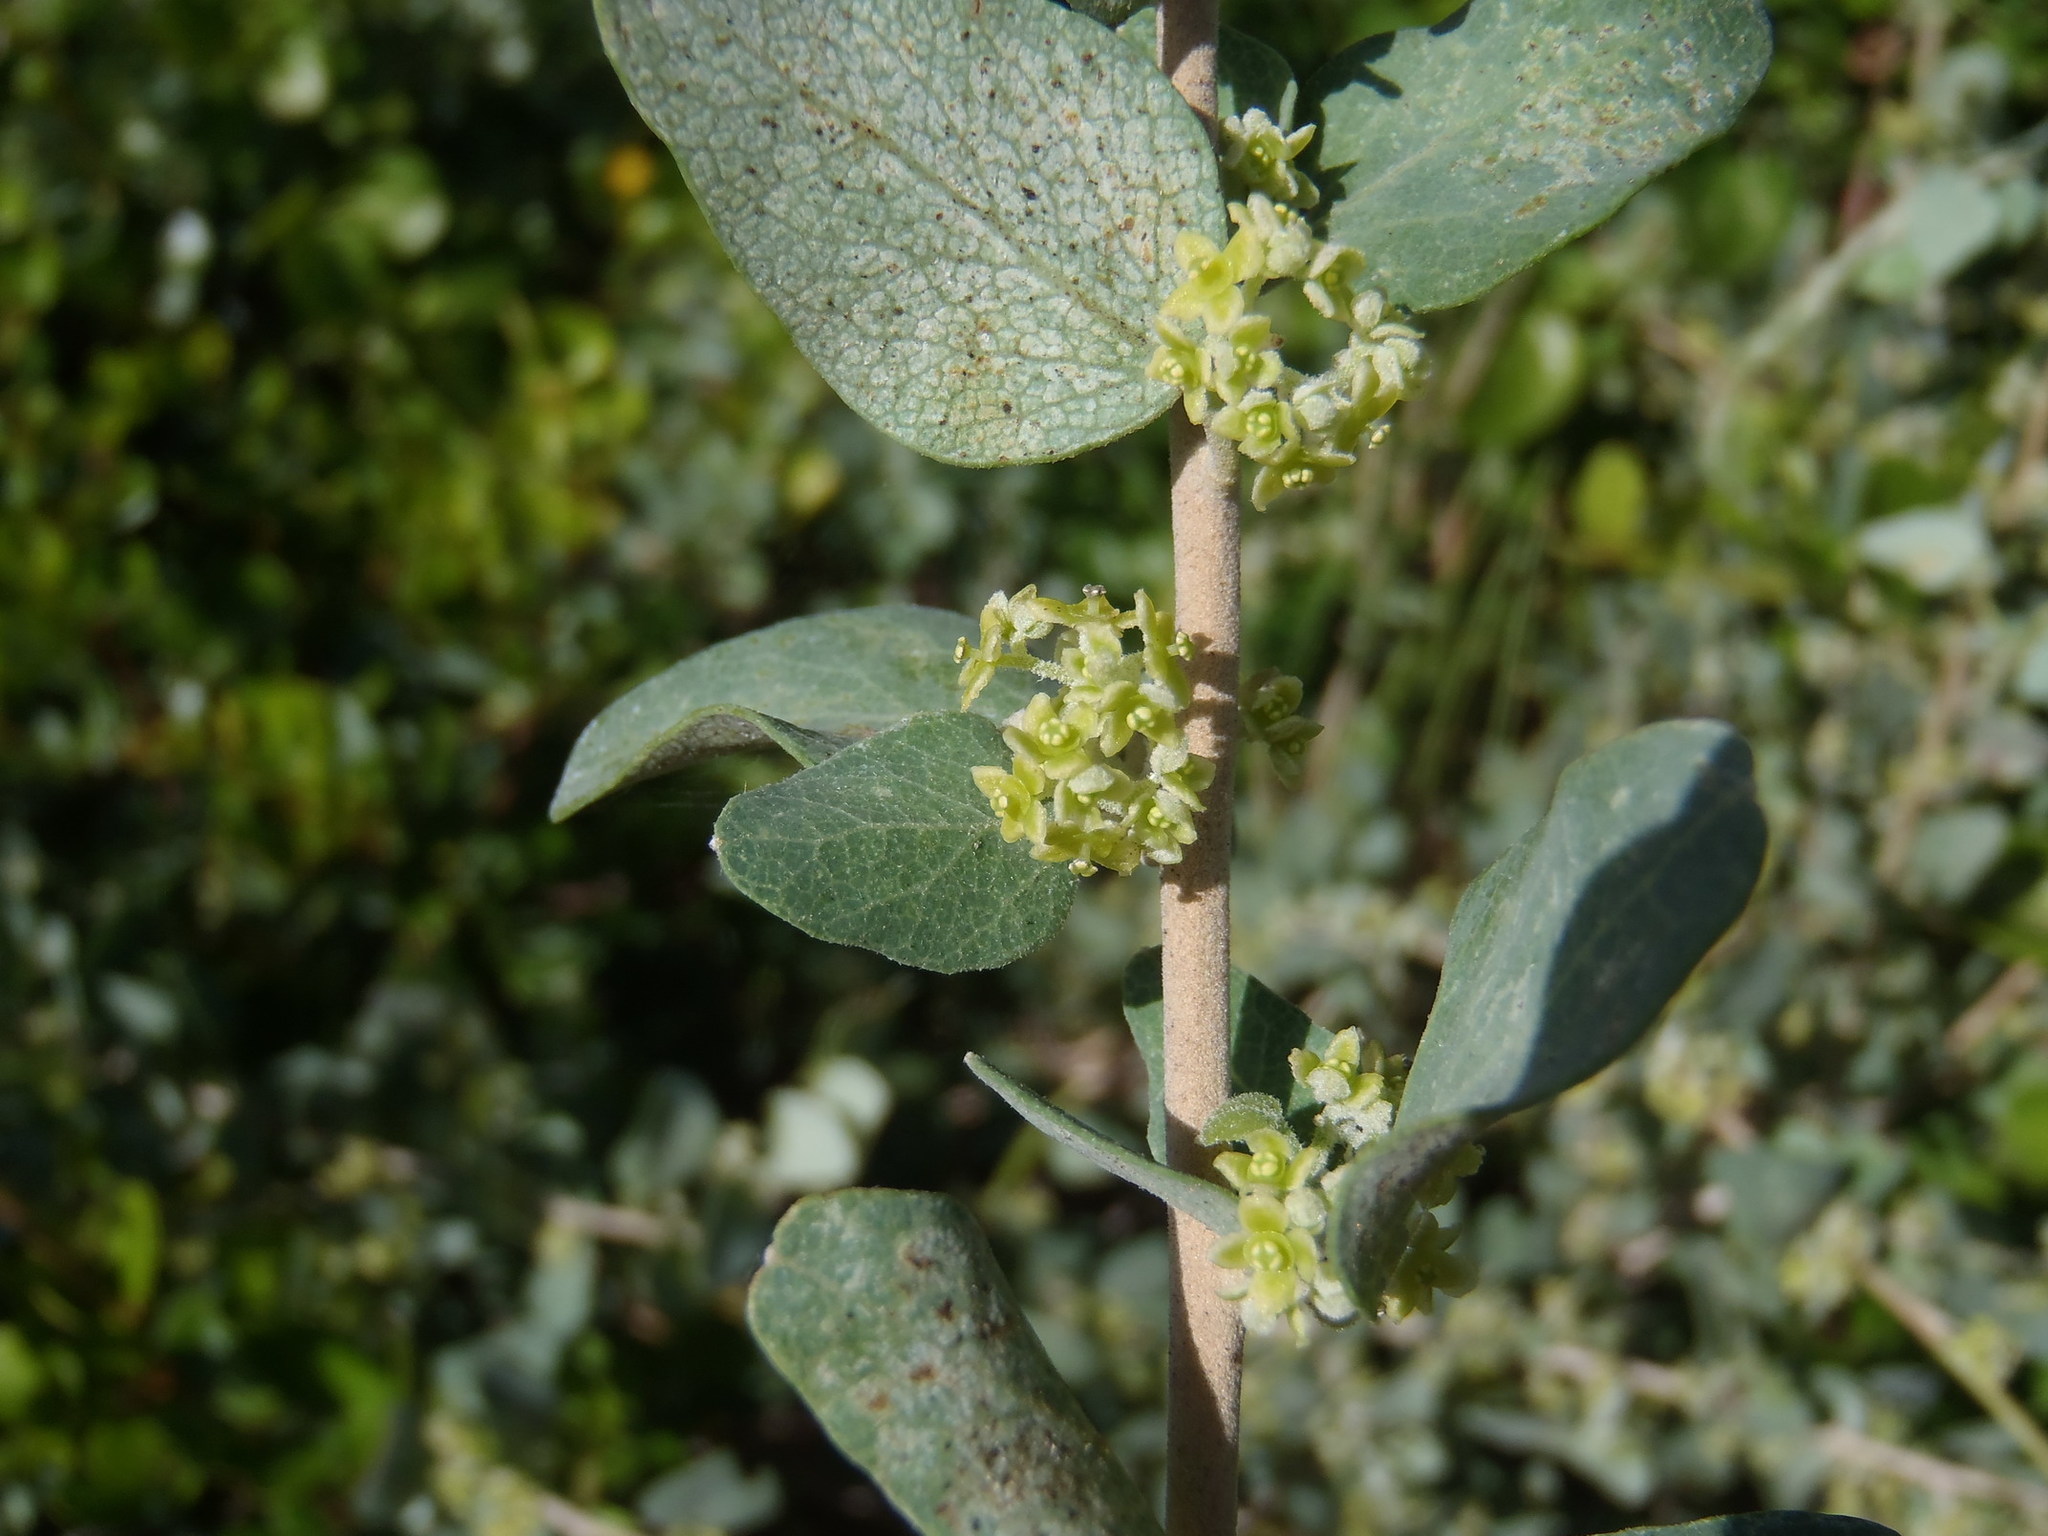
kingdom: Plantae
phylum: Tracheophyta
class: Magnoliopsida
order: Ranunculales
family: Menispermaceae
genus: Cissampelos
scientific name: Cissampelos capensis
